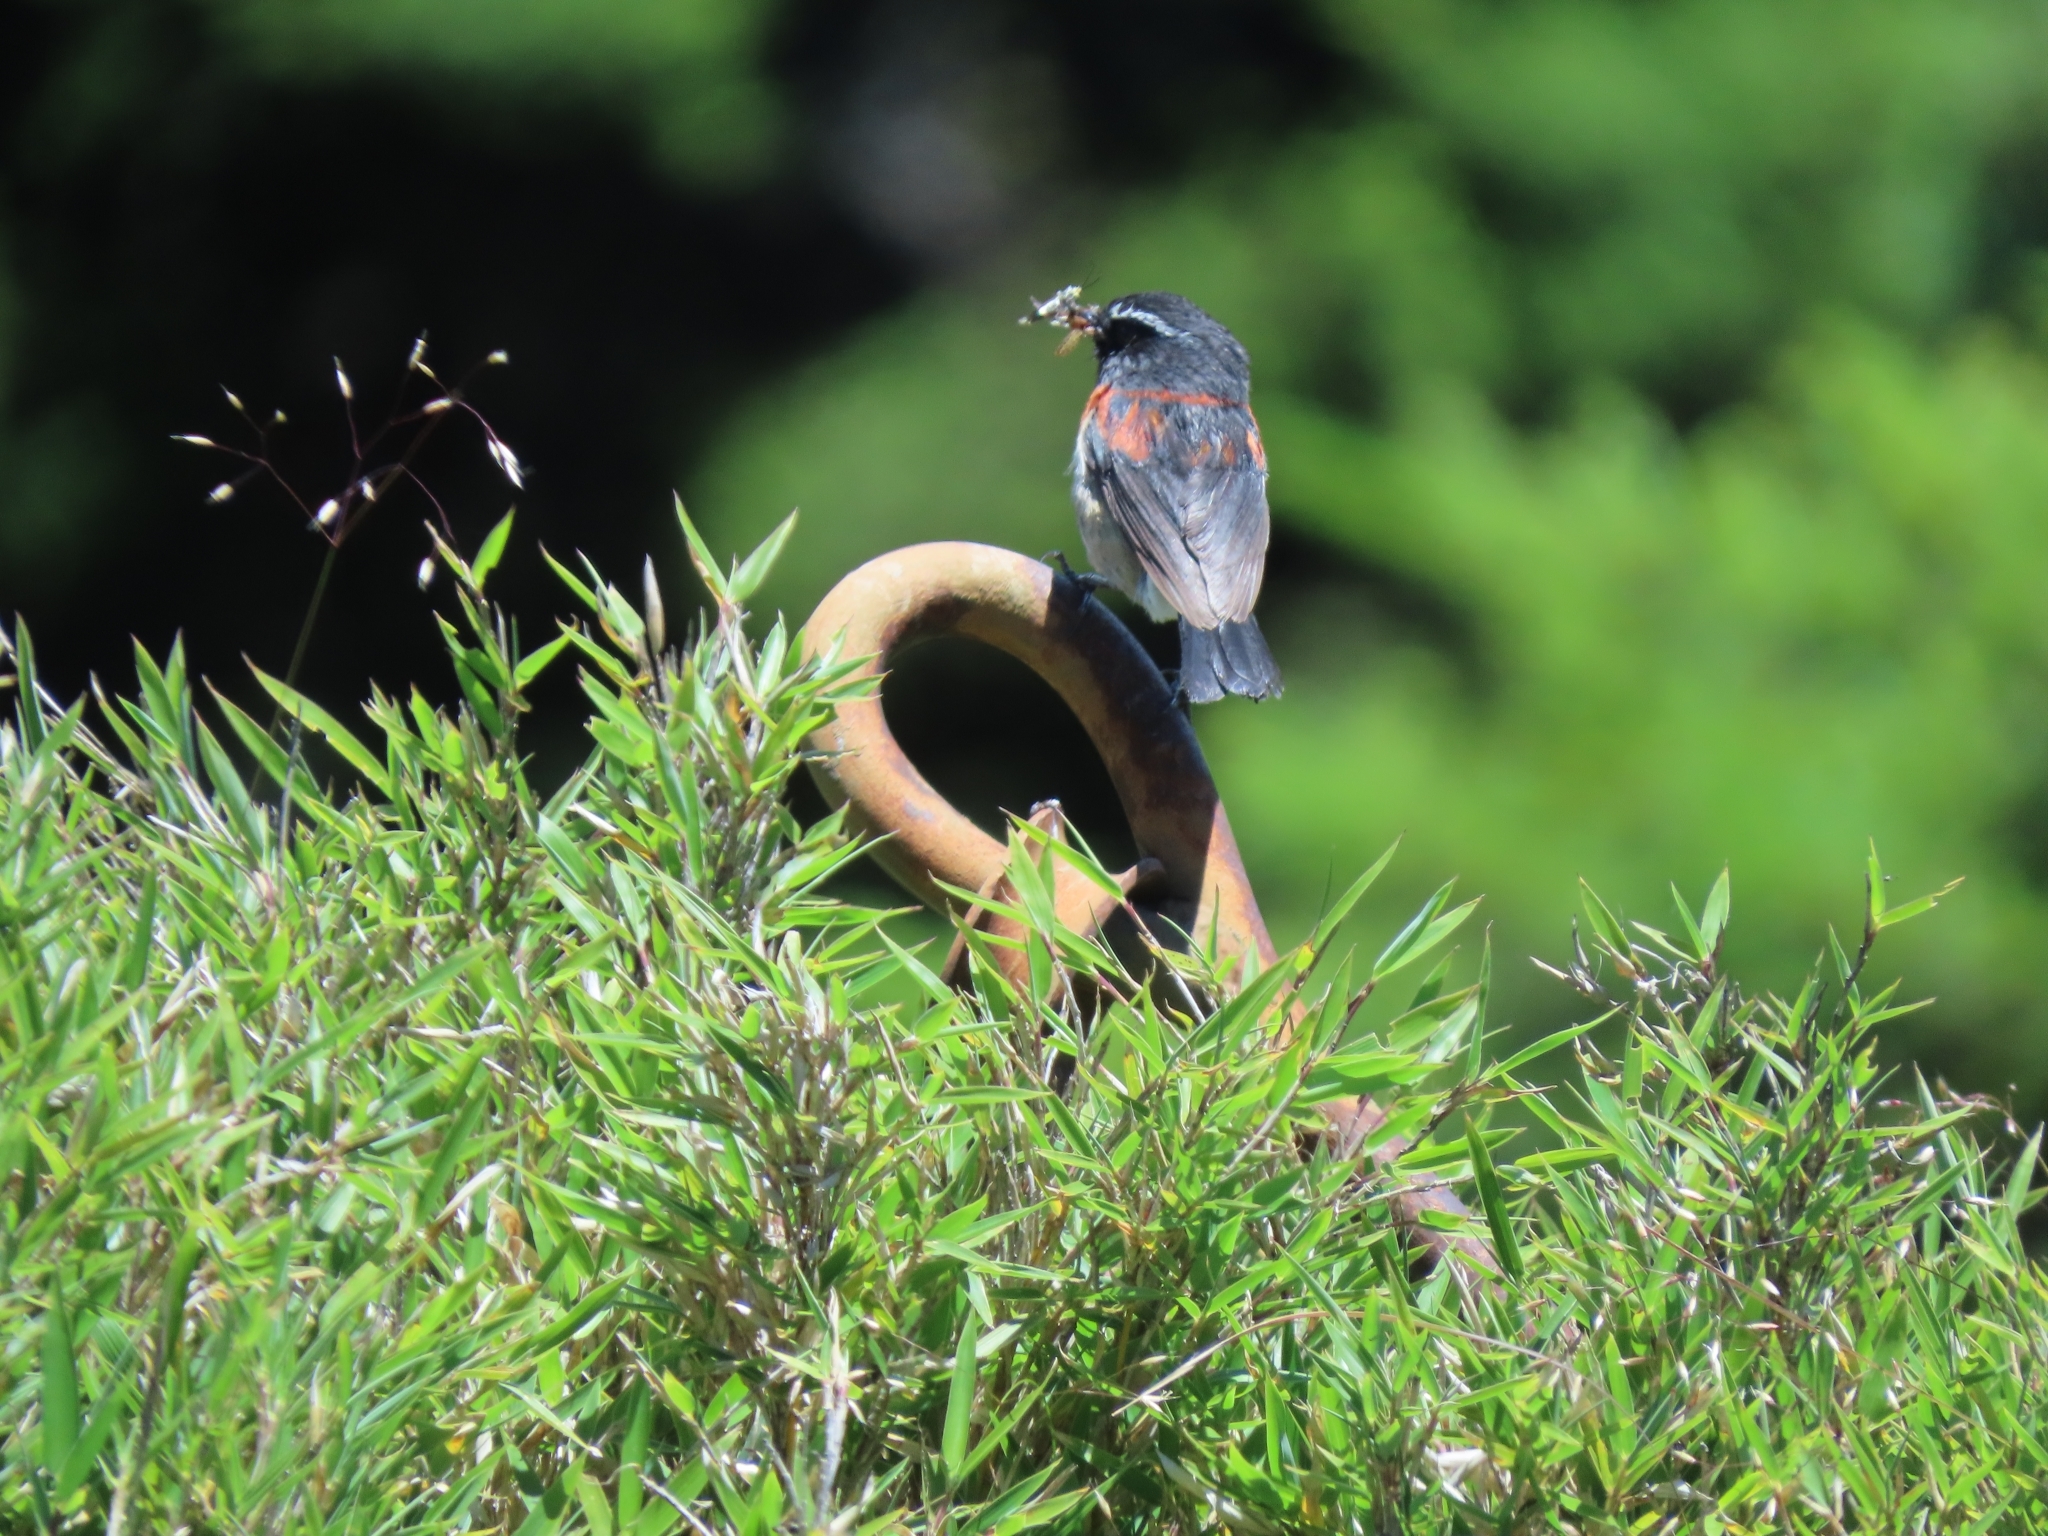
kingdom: Animalia
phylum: Chordata
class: Aves
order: Passeriformes
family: Muscicapidae
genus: Tarsiger
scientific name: Tarsiger johnstoniae
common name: Collared bush robin
